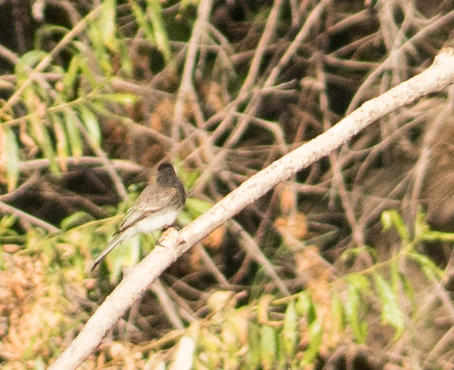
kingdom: Animalia
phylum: Chordata
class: Aves
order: Passeriformes
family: Tyrannidae
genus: Sayornis
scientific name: Sayornis nigricans
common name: Black phoebe
